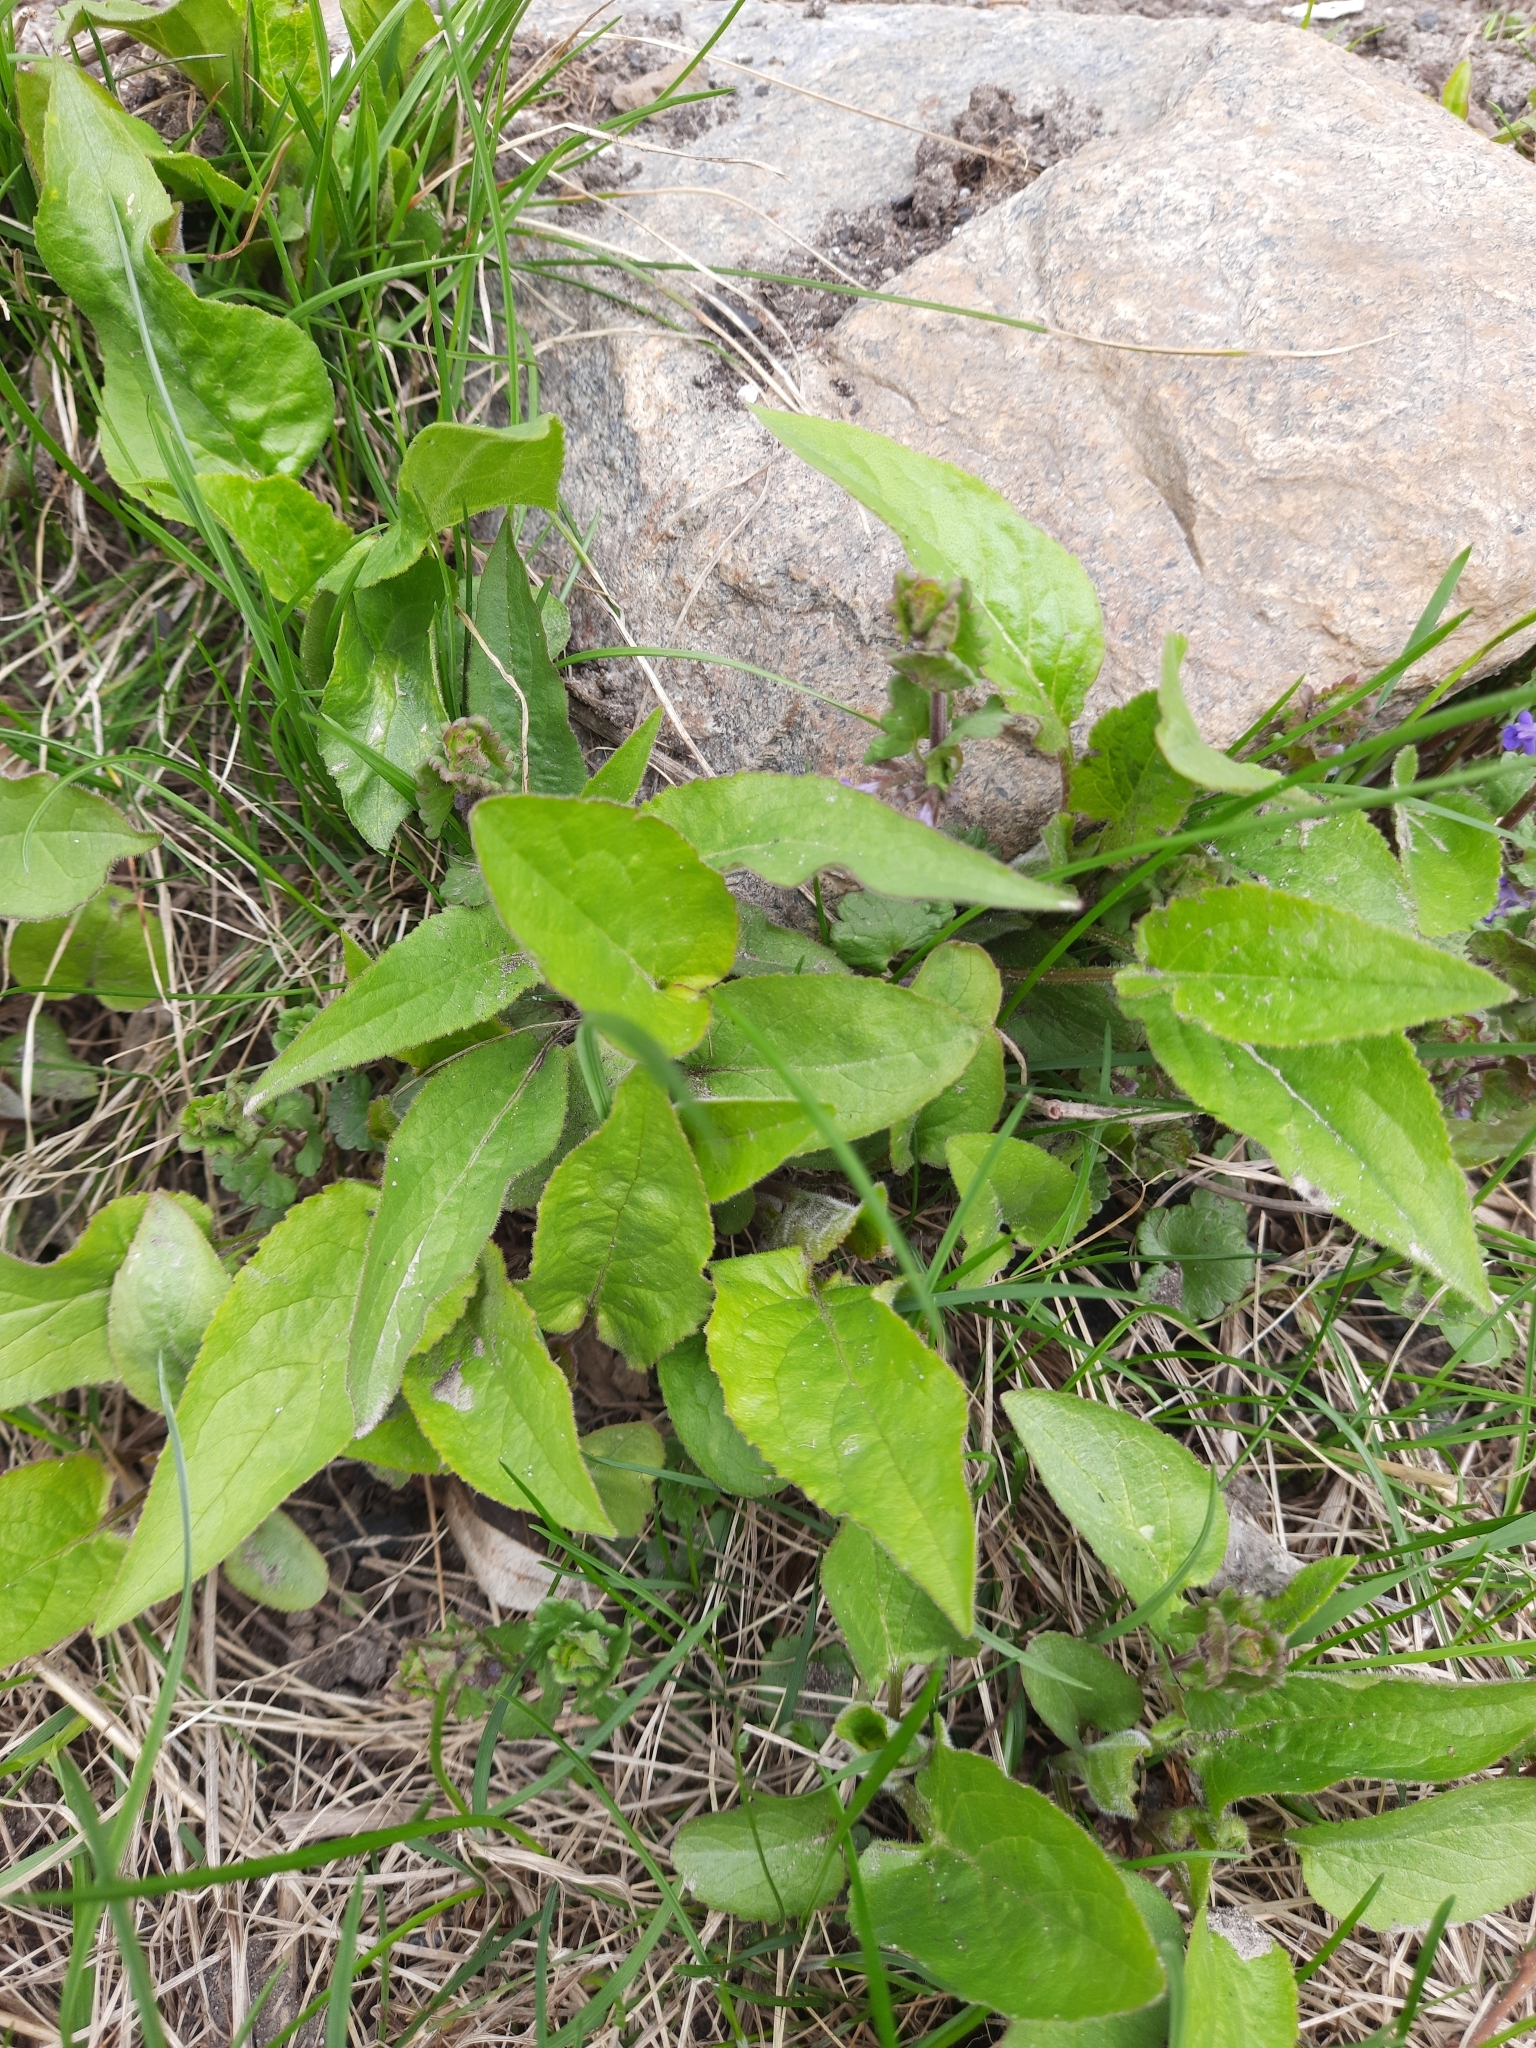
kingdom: Plantae
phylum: Tracheophyta
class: Magnoliopsida
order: Asterales
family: Campanulaceae
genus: Campanula
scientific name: Campanula rapunculoides
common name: Creeping bellflower
